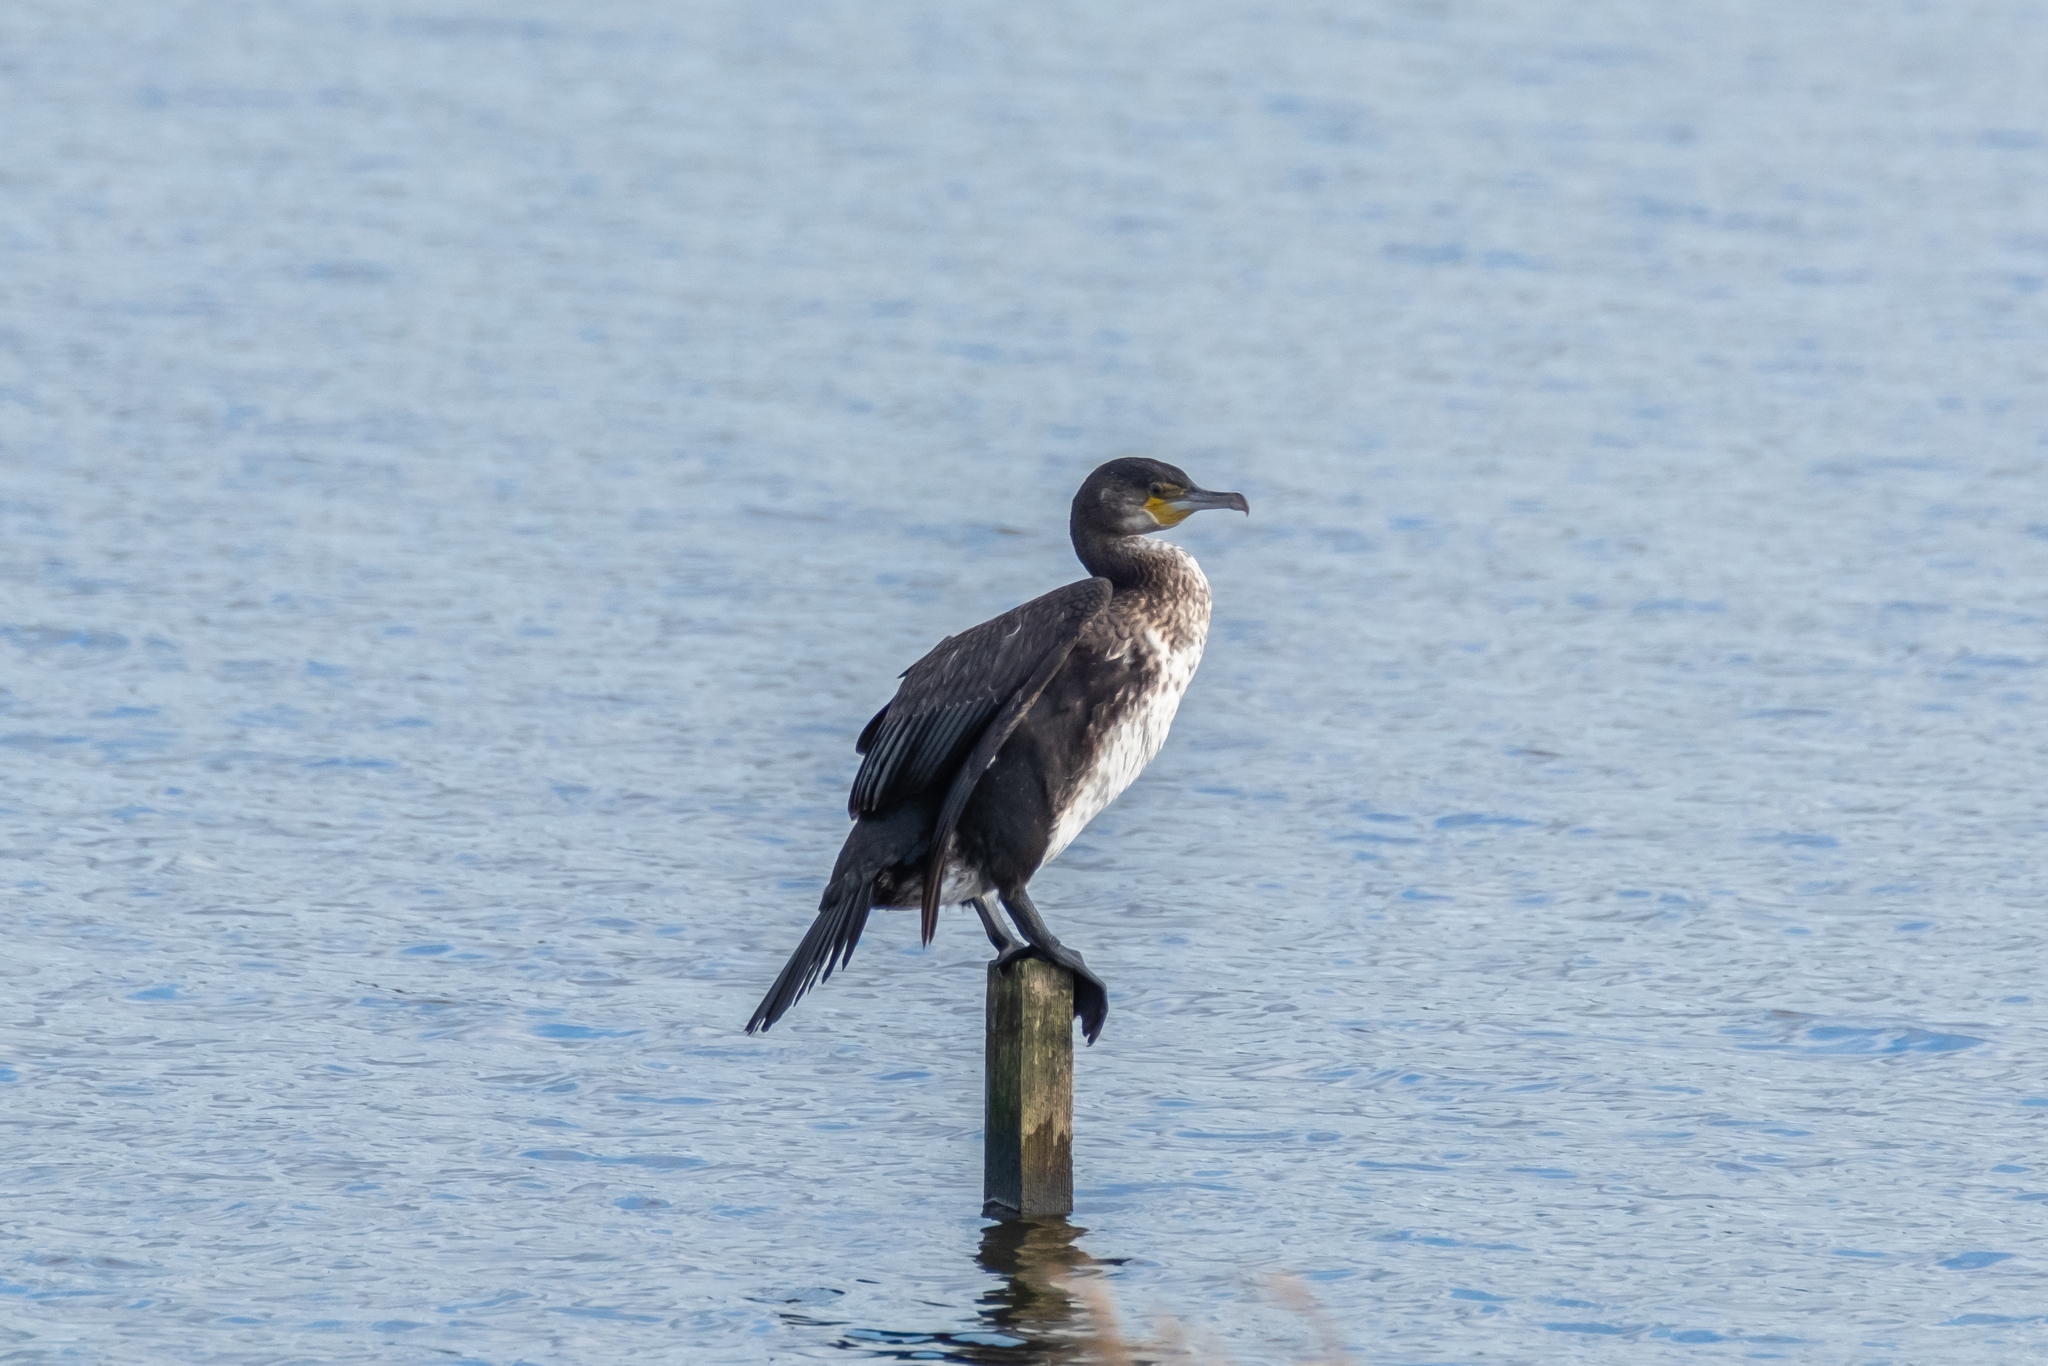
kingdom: Animalia
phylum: Chordata
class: Aves
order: Suliformes
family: Phalacrocoracidae
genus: Phalacrocorax
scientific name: Phalacrocorax carbo
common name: Great cormorant
